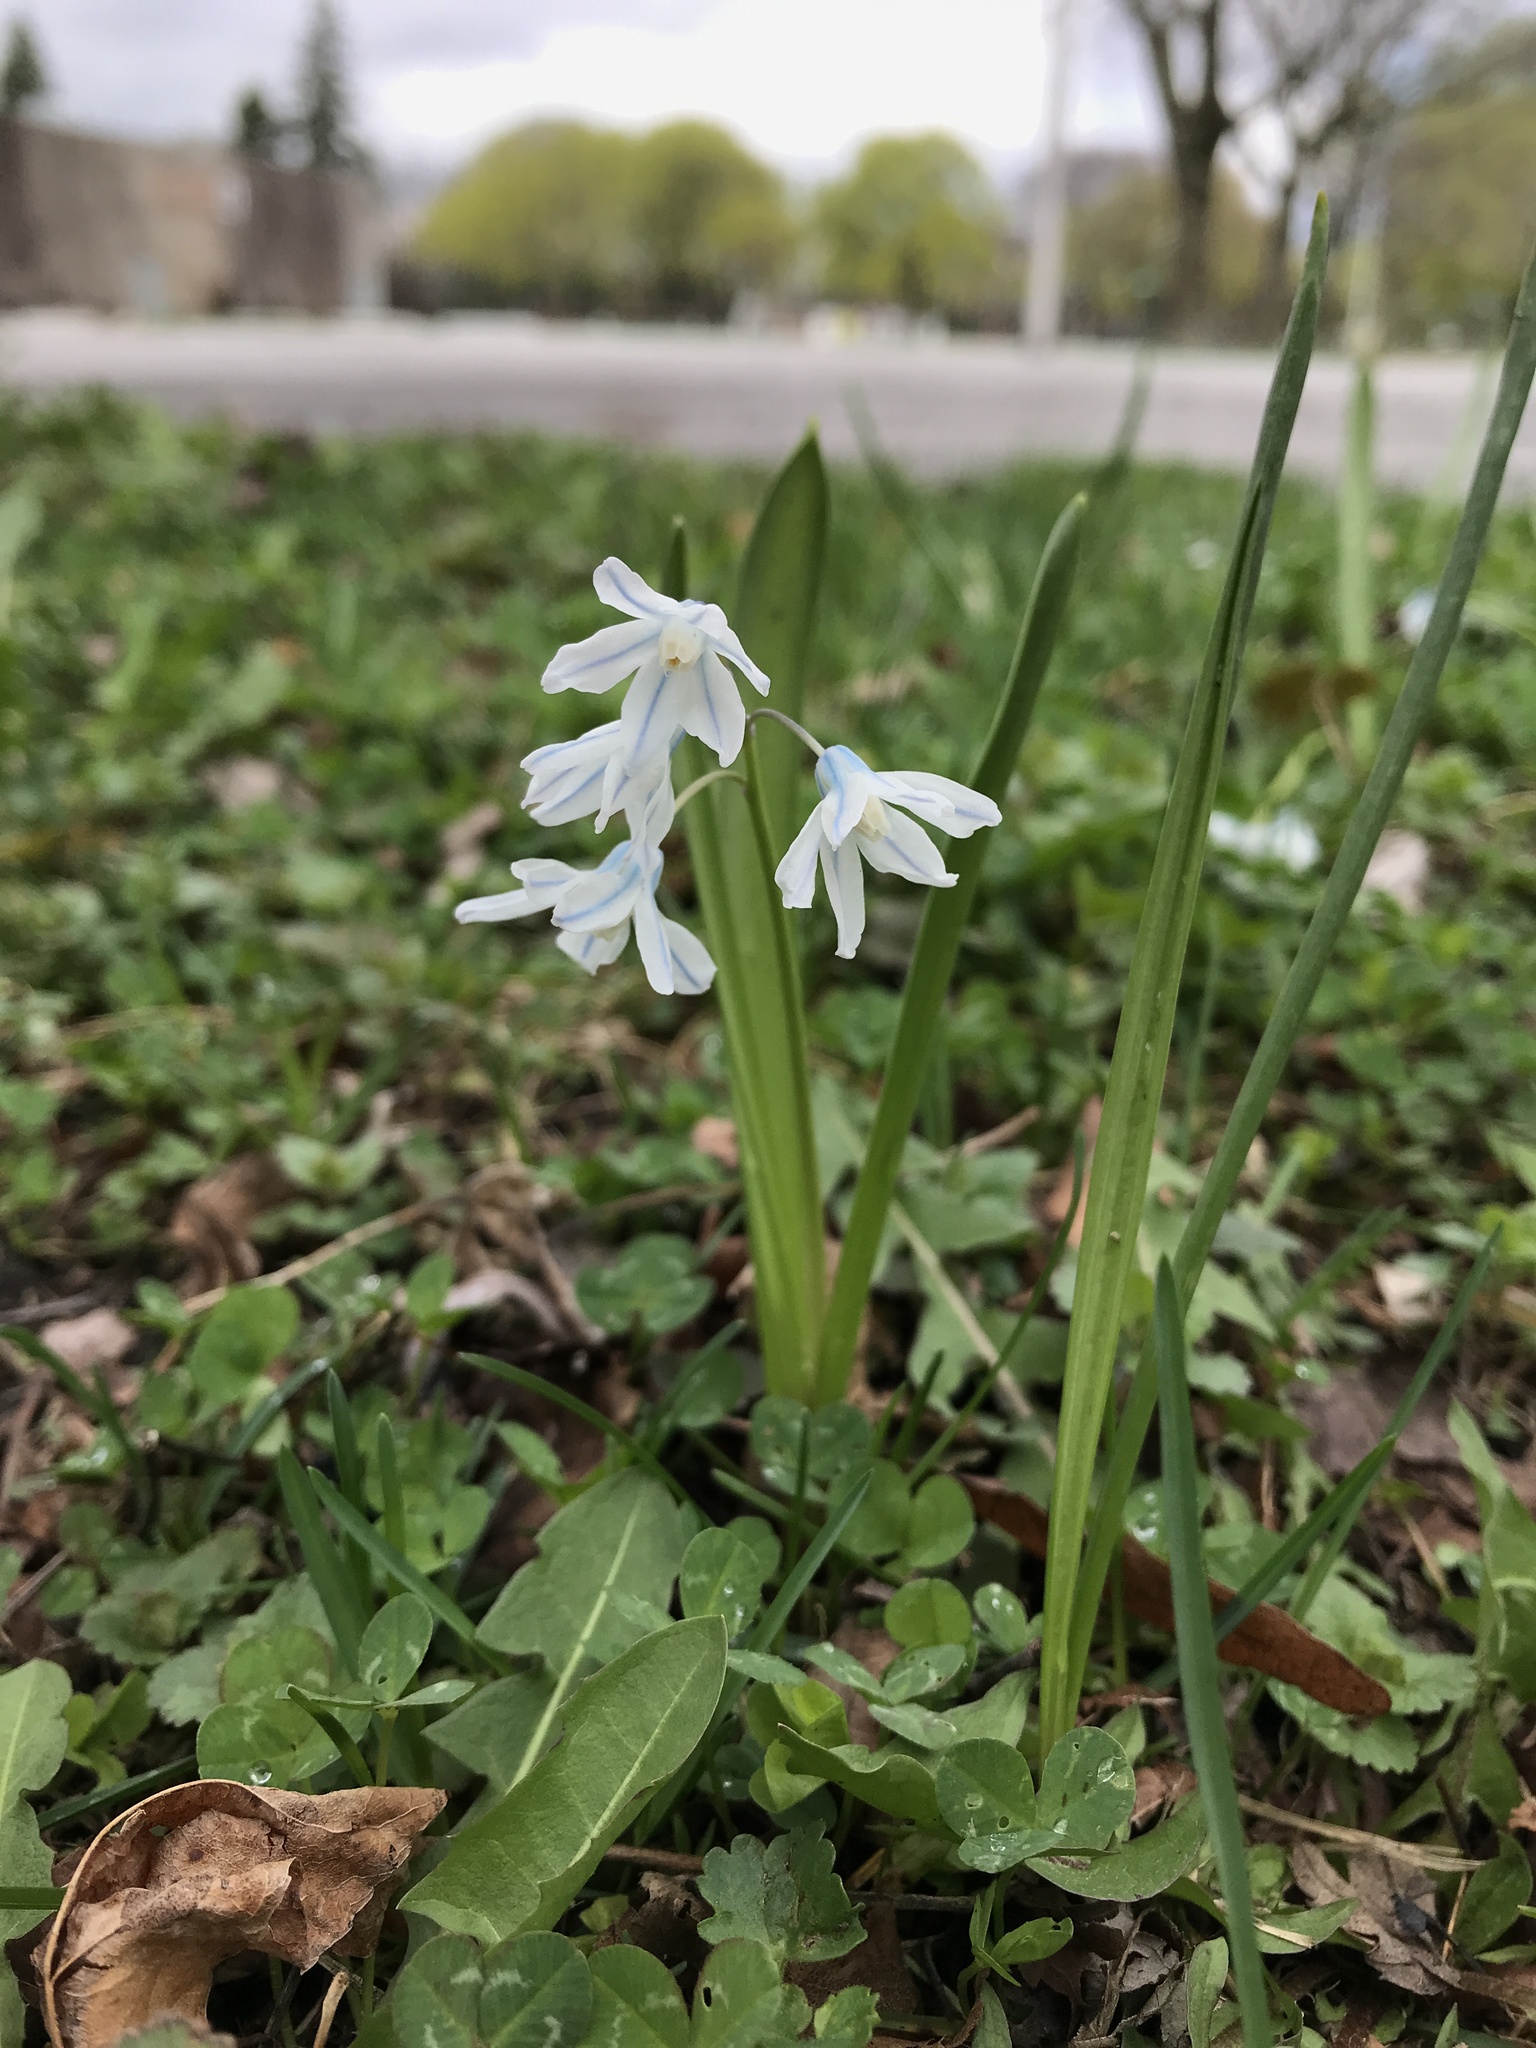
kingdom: Plantae
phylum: Tracheophyta
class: Liliopsida
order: Asparagales
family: Asparagaceae
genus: Puschkinia
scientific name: Puschkinia scilloides
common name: Striped squill
